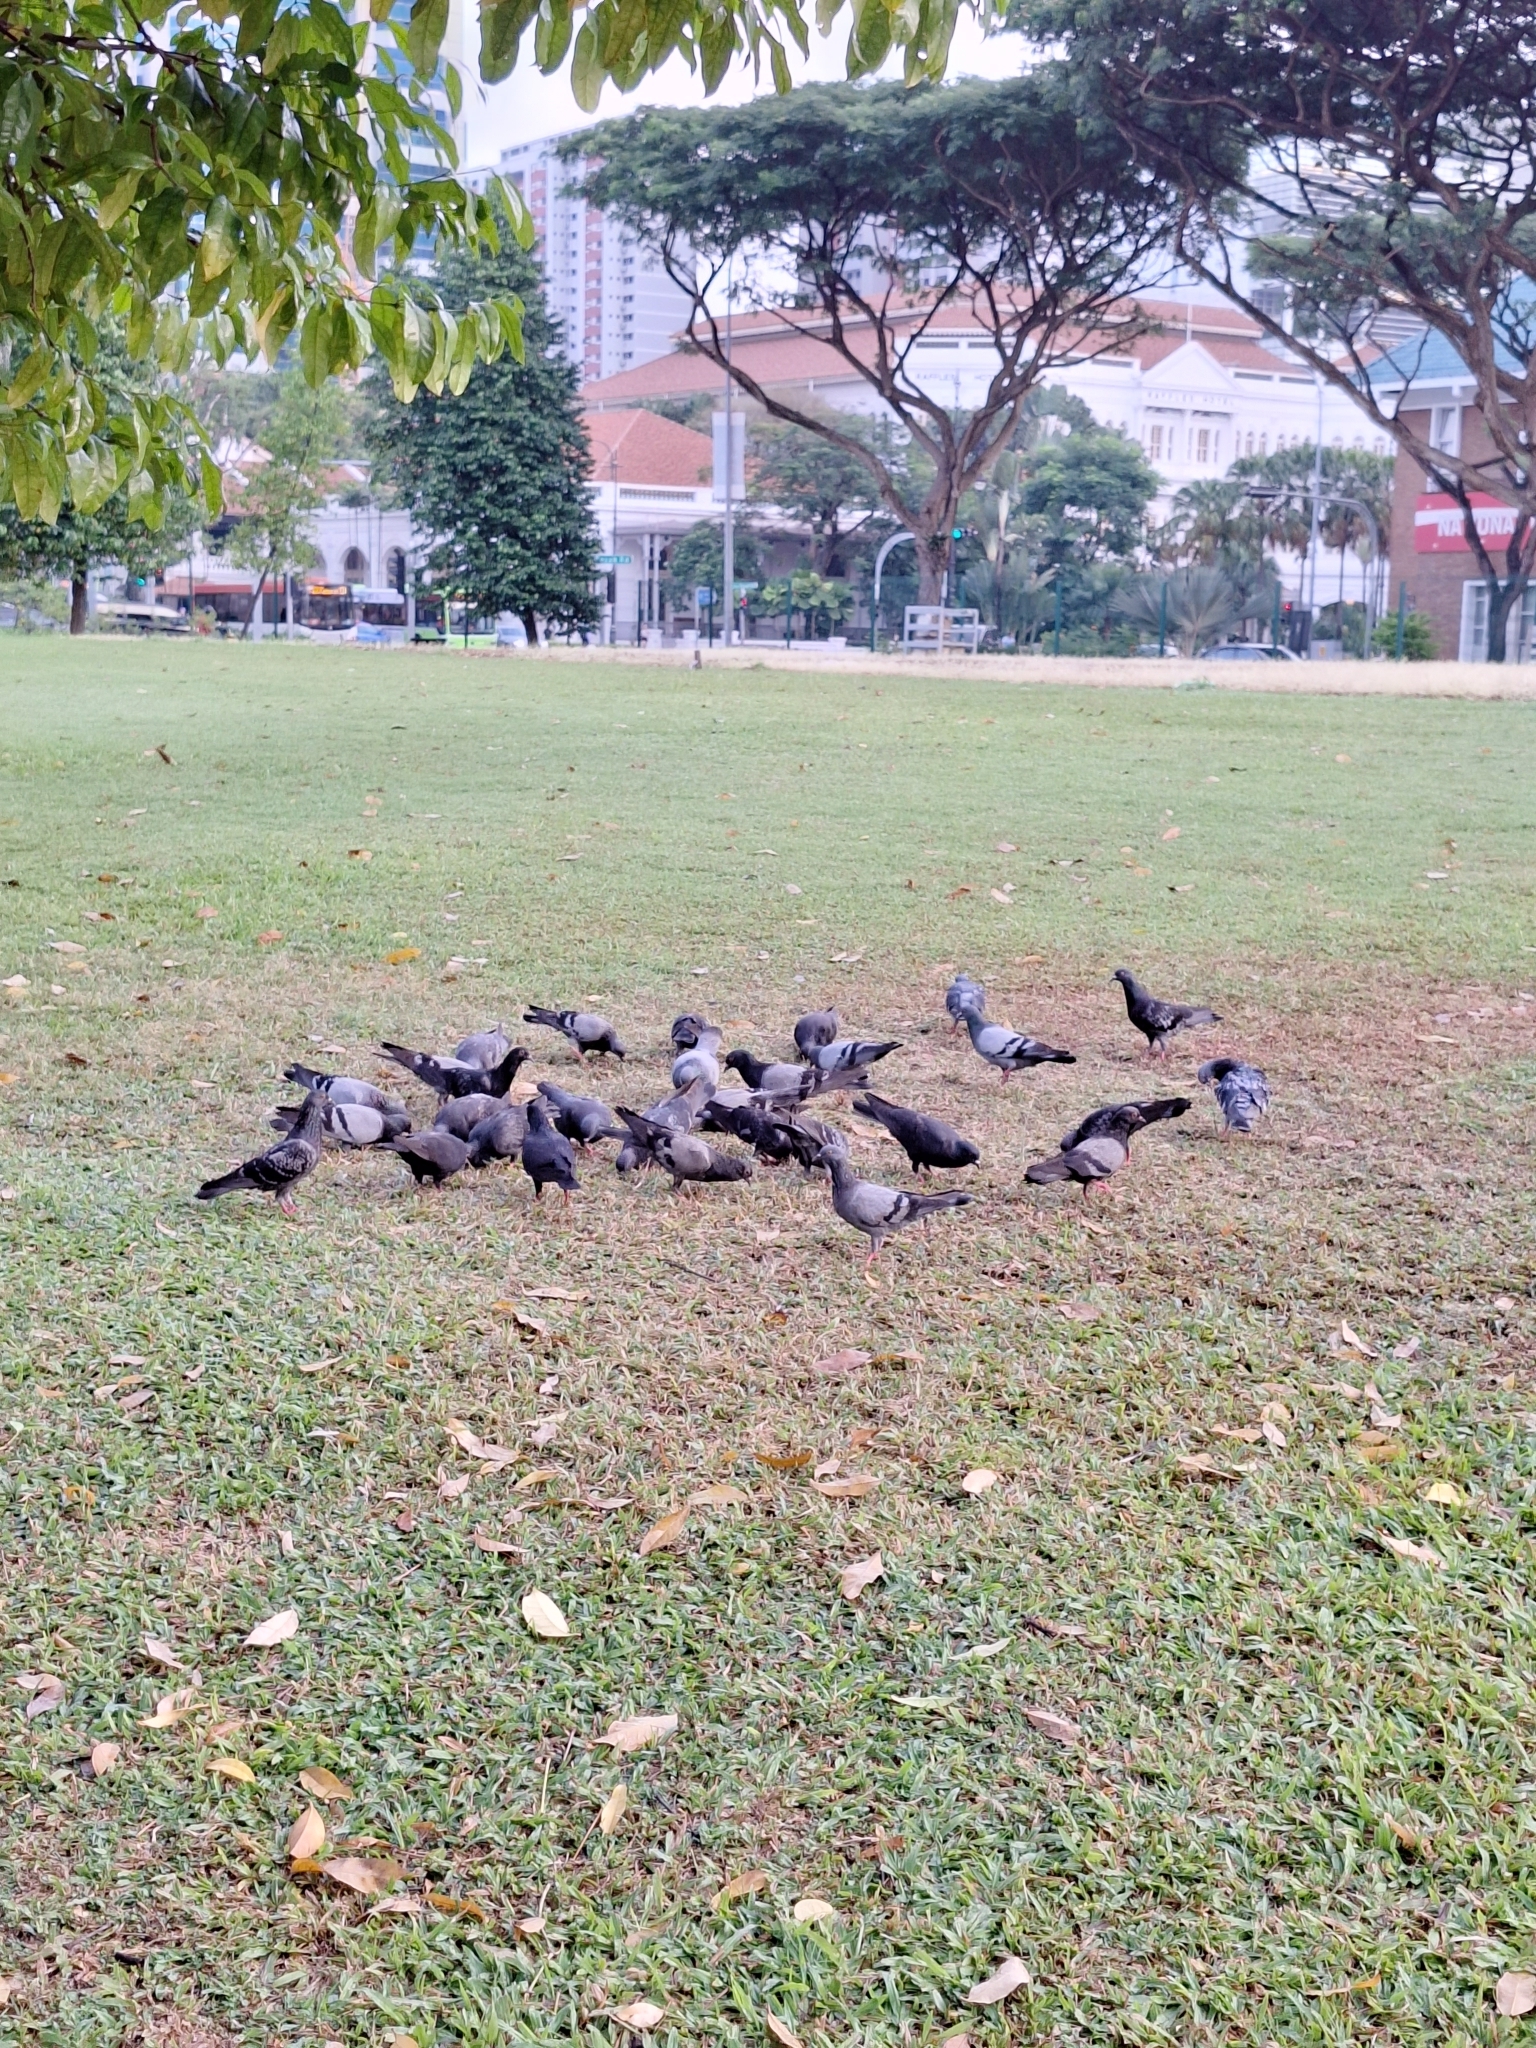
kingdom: Animalia
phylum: Chordata
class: Aves
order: Columbiformes
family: Columbidae
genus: Columba
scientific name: Columba livia
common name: Rock pigeon
